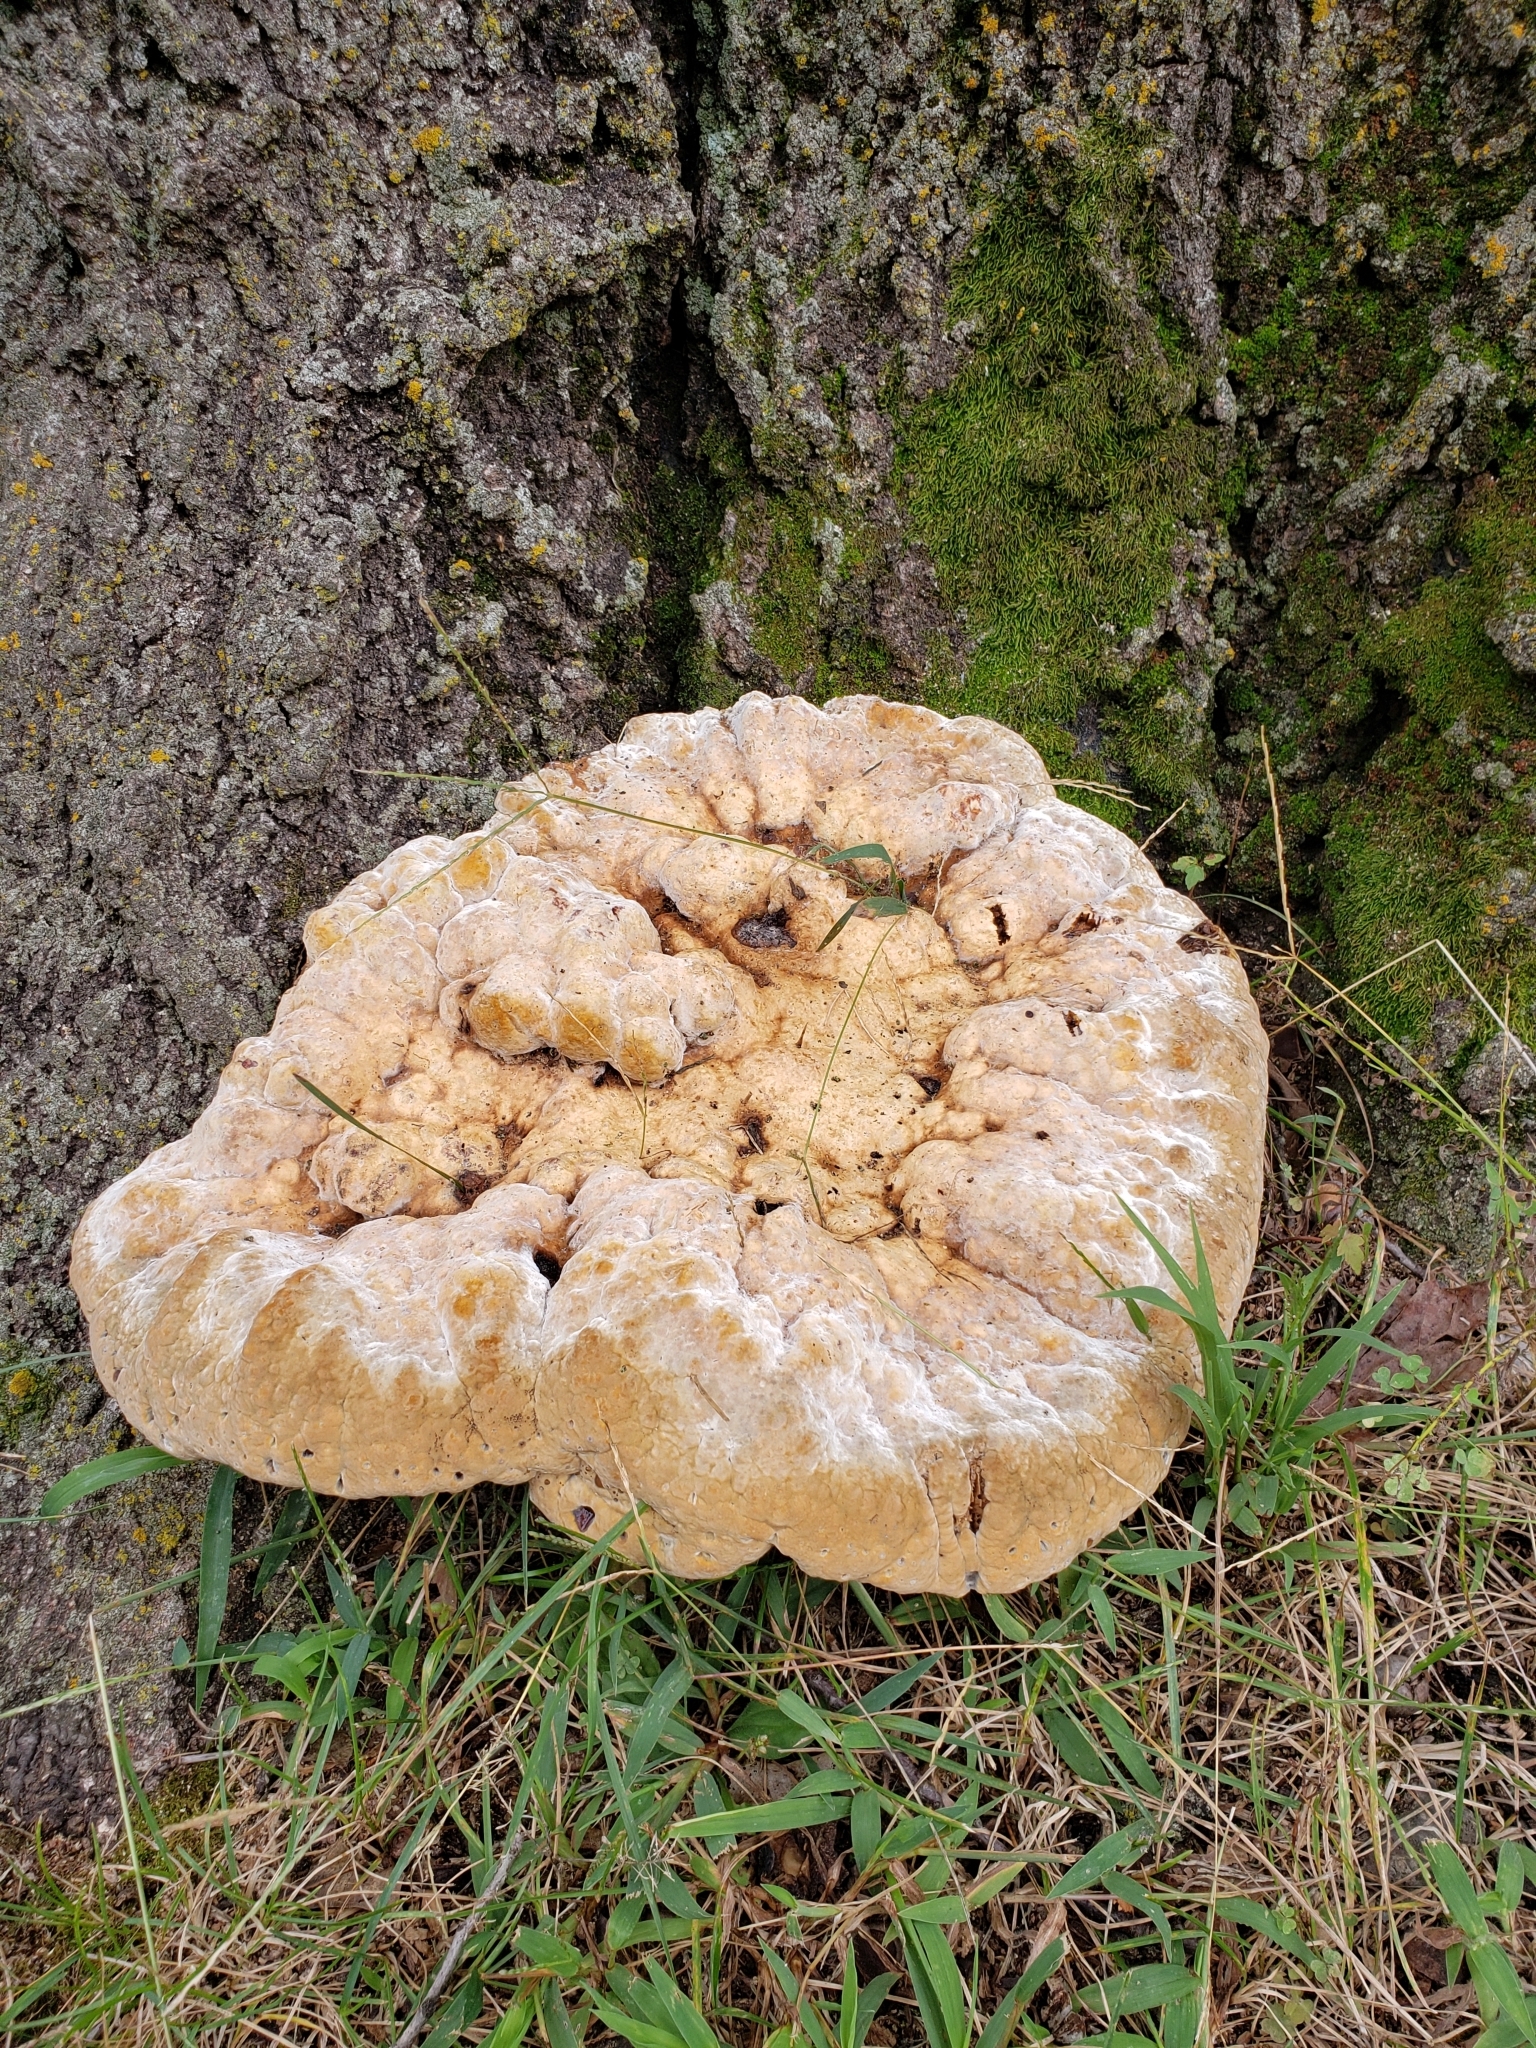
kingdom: Fungi
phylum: Basidiomycota
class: Agaricomycetes
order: Hymenochaetales
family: Hymenochaetaceae
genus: Pseudoinonotus
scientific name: Pseudoinonotus dryadeus
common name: Oak bracket
